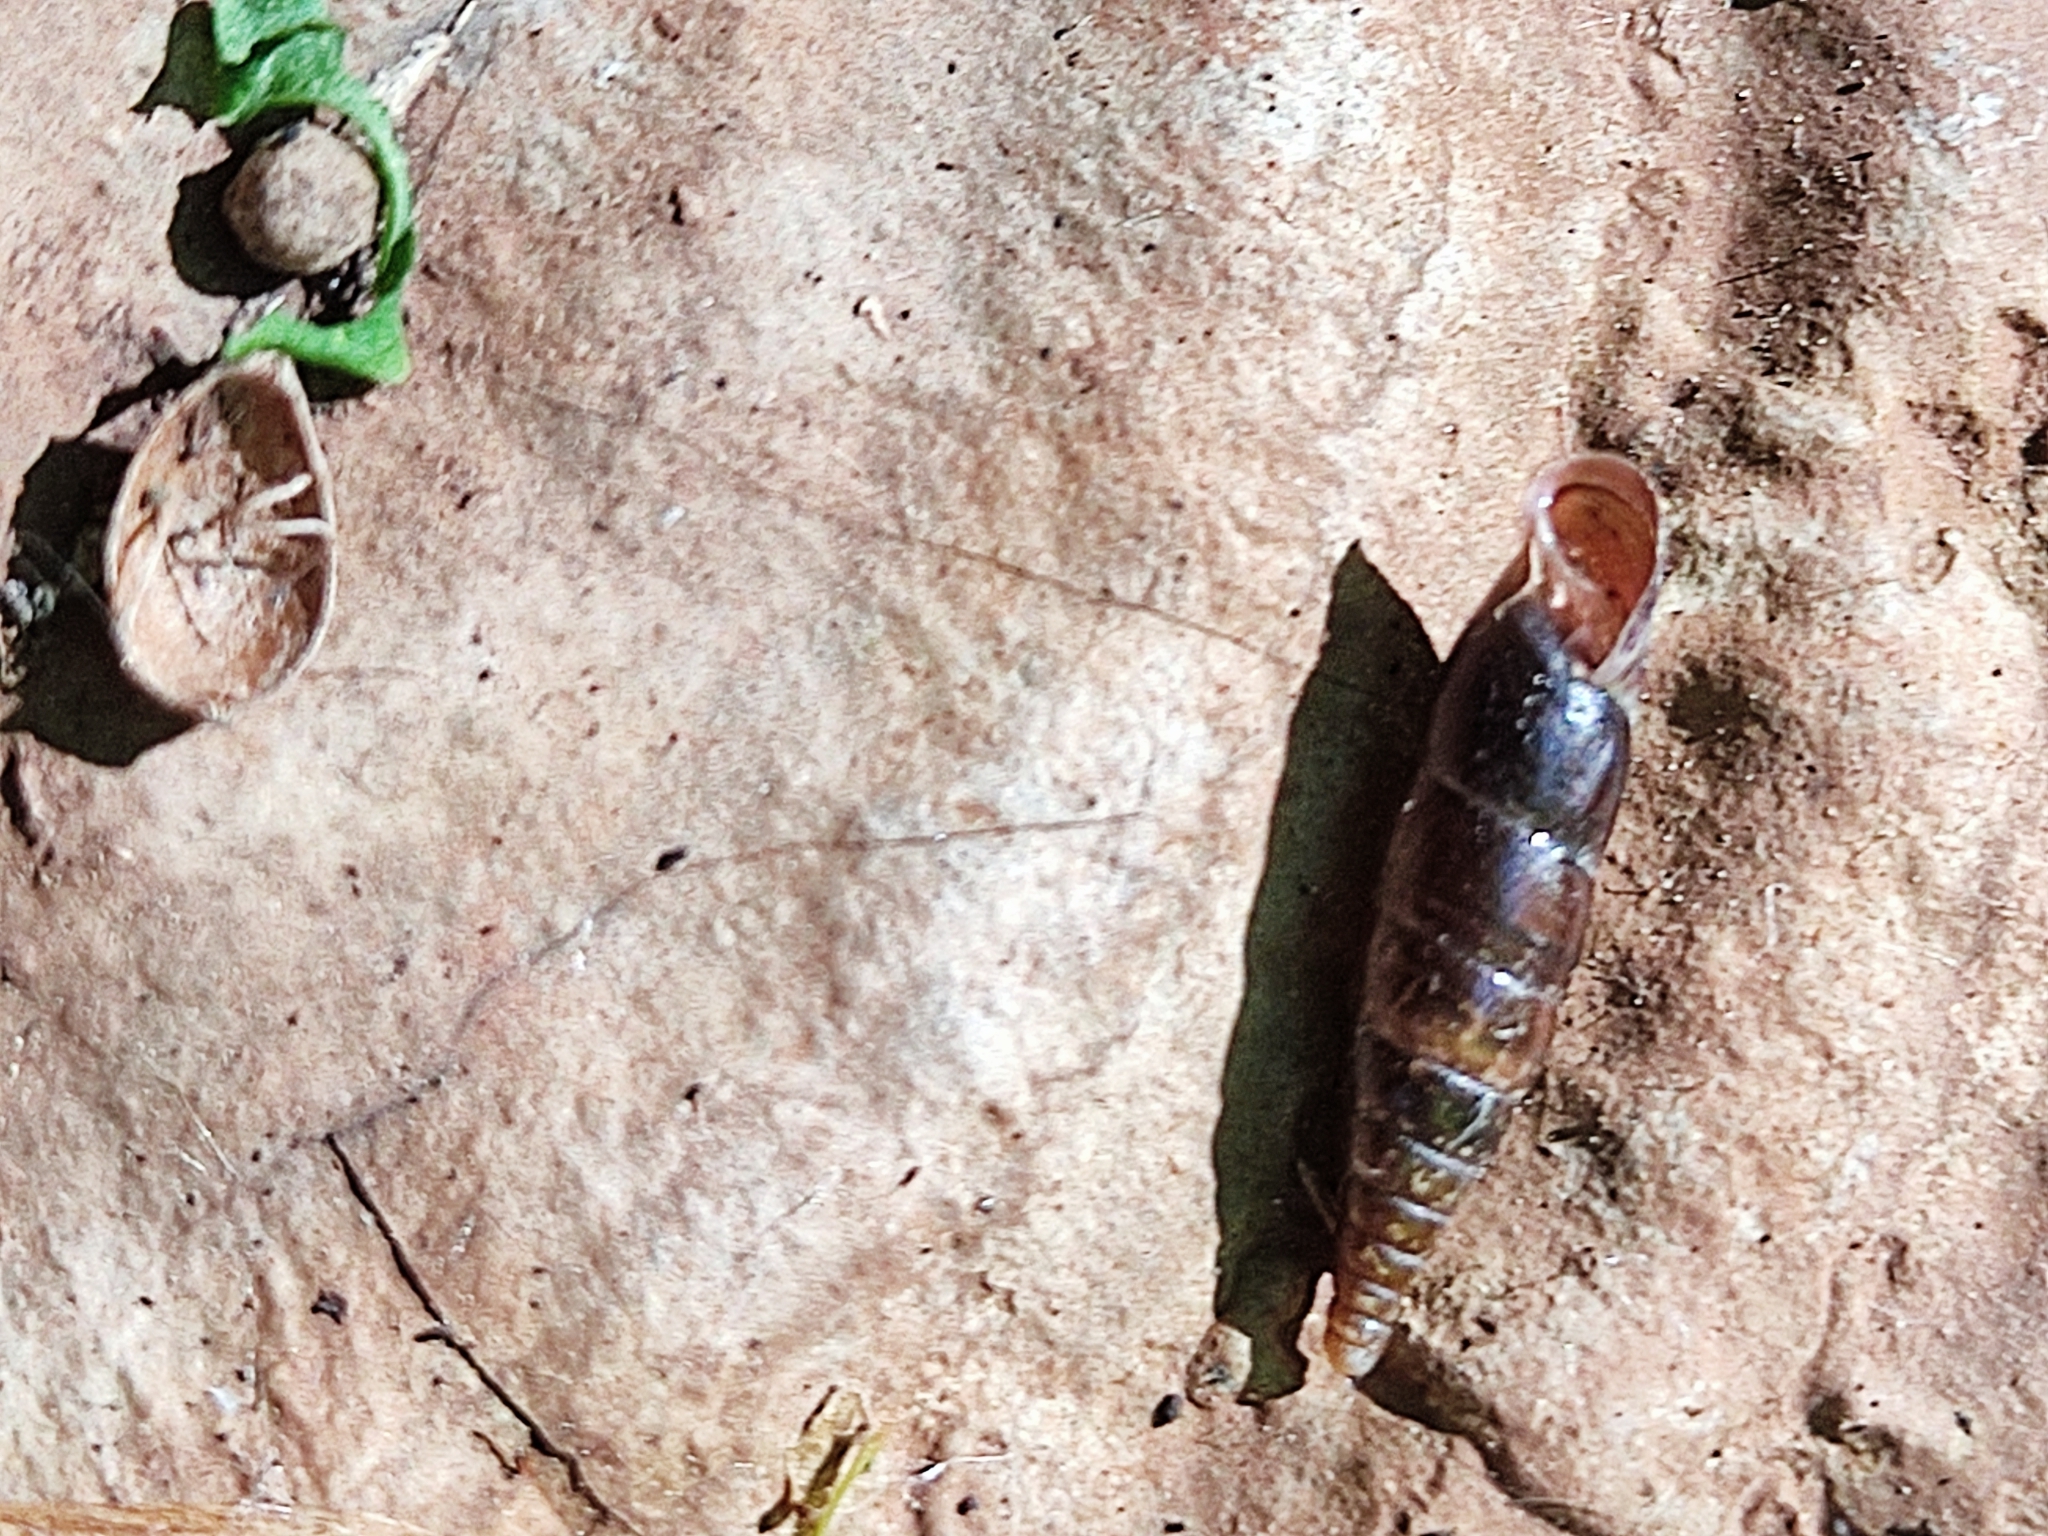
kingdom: Animalia
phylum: Mollusca
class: Gastropoda
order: Stylommatophora
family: Clausiliidae
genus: Cochlodina
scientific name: Cochlodina laminata
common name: Plaited door snail
